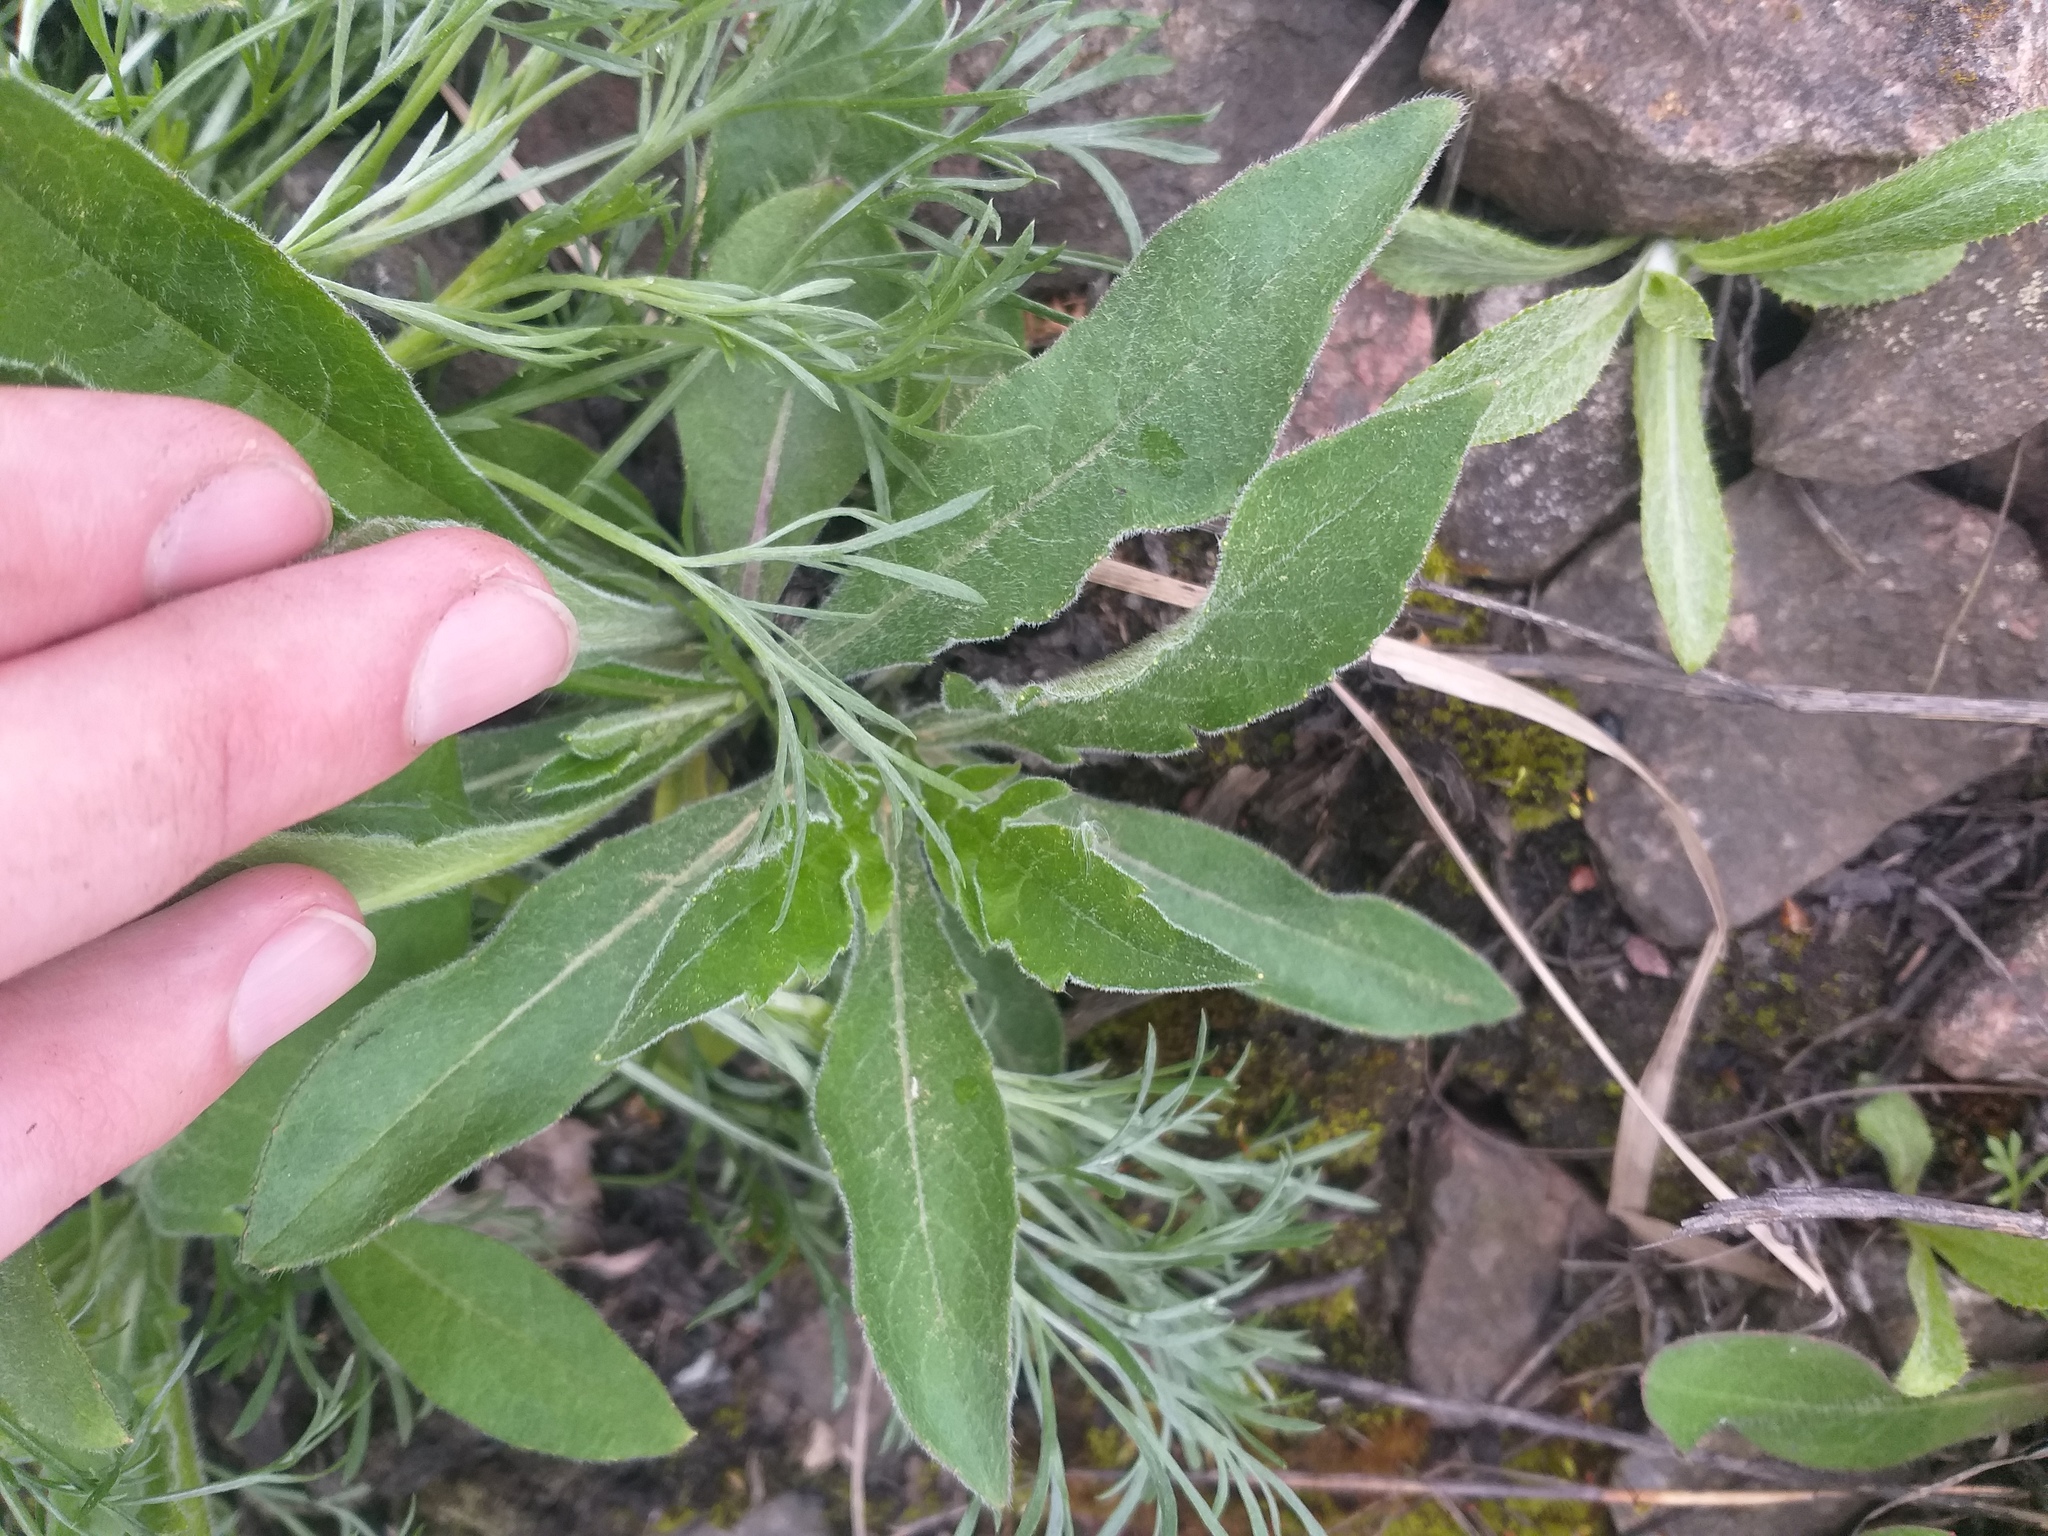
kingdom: Plantae
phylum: Tracheophyta
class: Magnoliopsida
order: Dipsacales
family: Caprifoliaceae
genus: Knautia
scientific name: Knautia arvensis
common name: Field scabiosa
